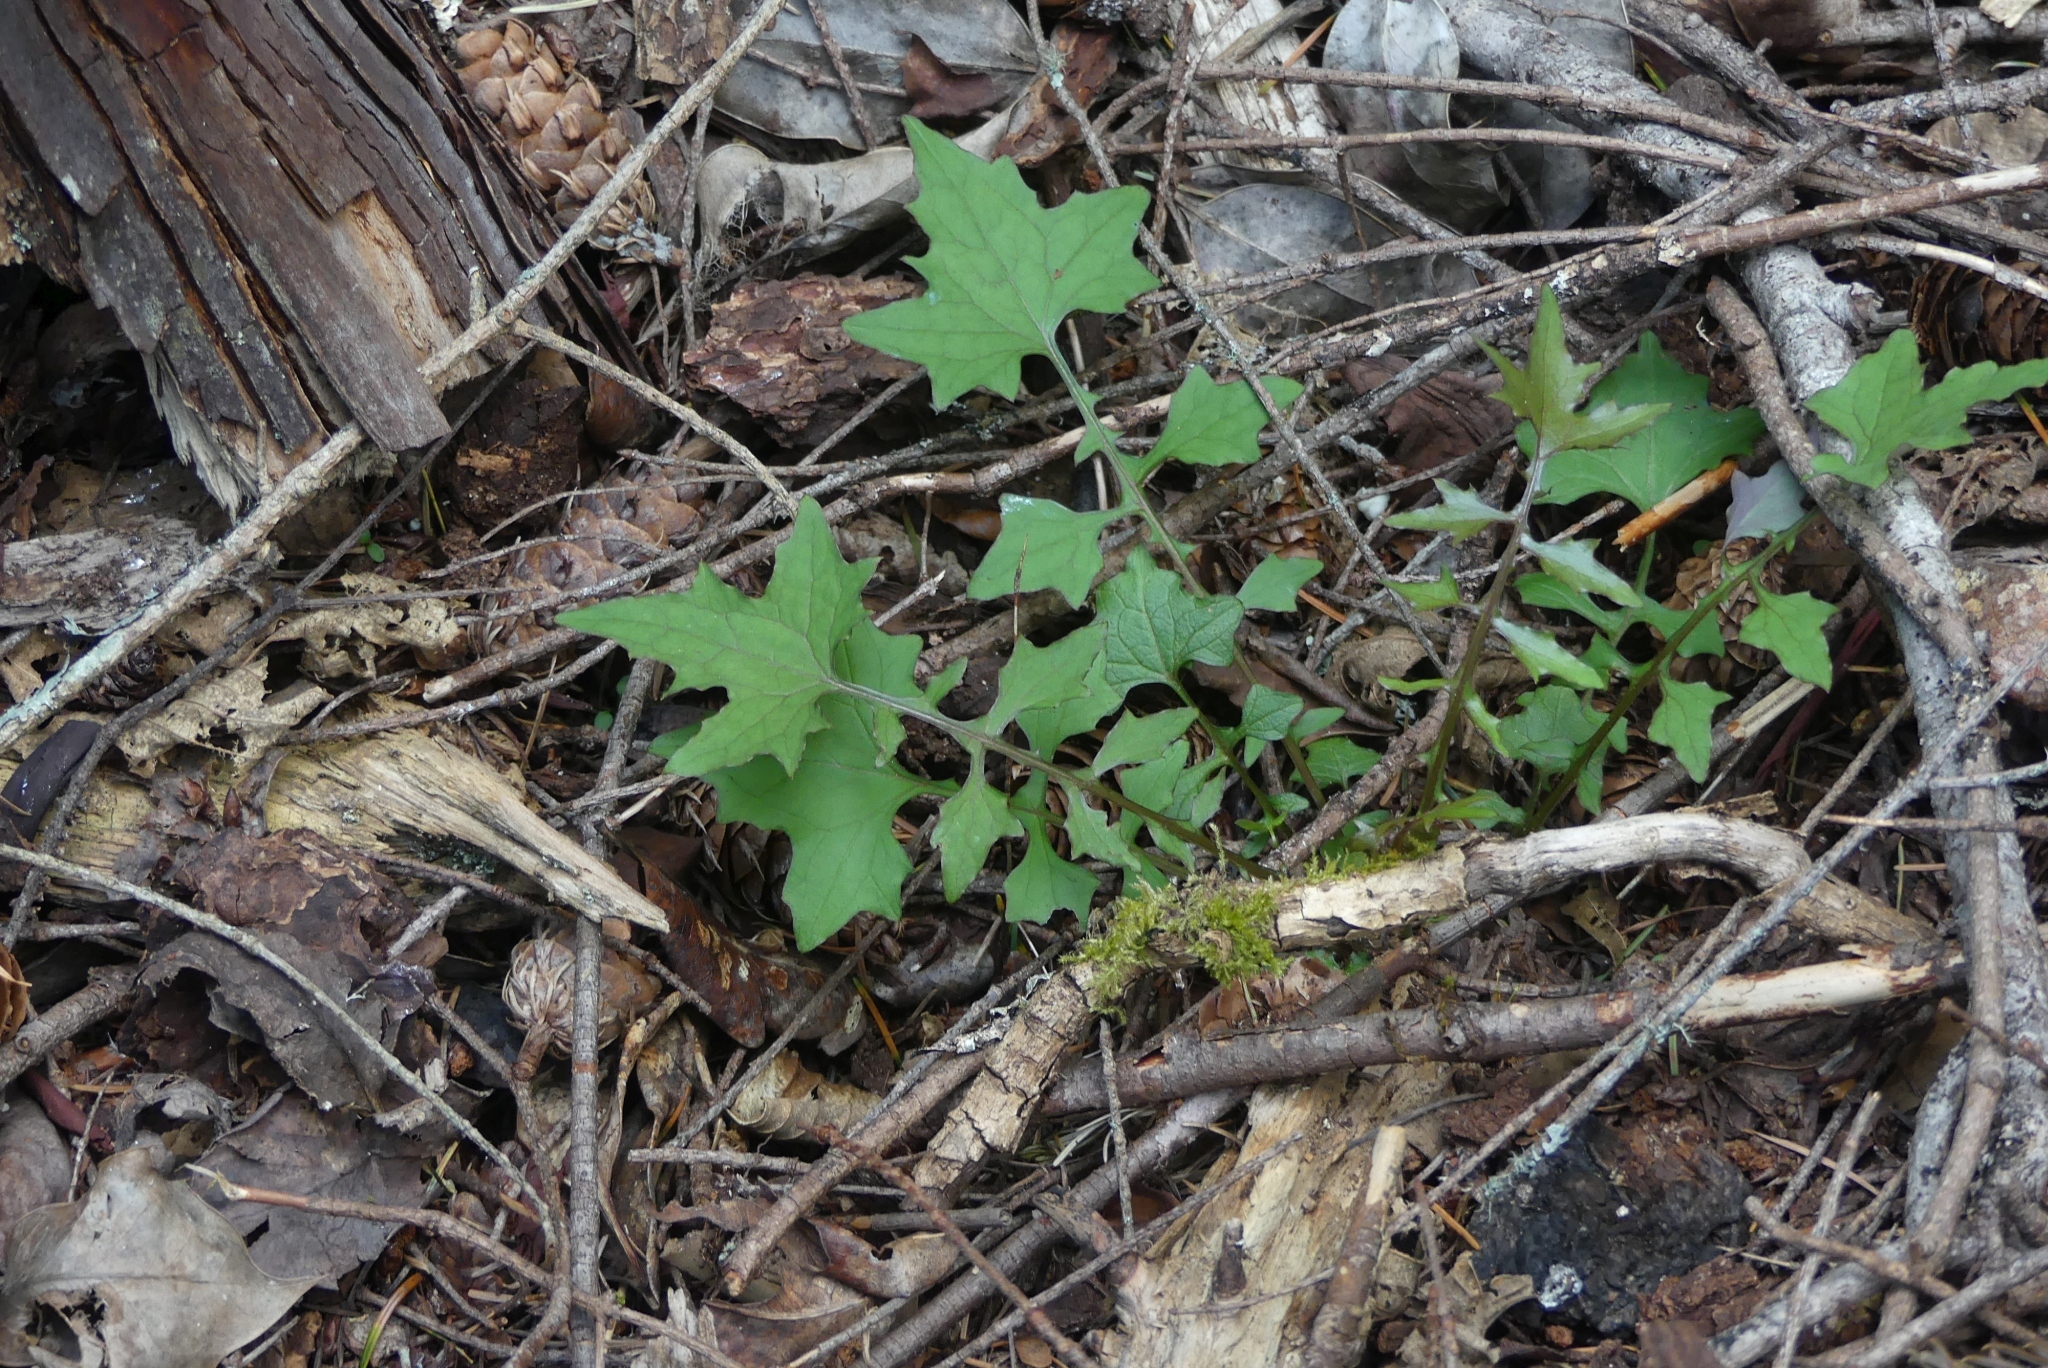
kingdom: Plantae
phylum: Tracheophyta
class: Magnoliopsida
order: Asterales
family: Asteraceae
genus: Mycelis
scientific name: Mycelis muralis
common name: Wall lettuce
